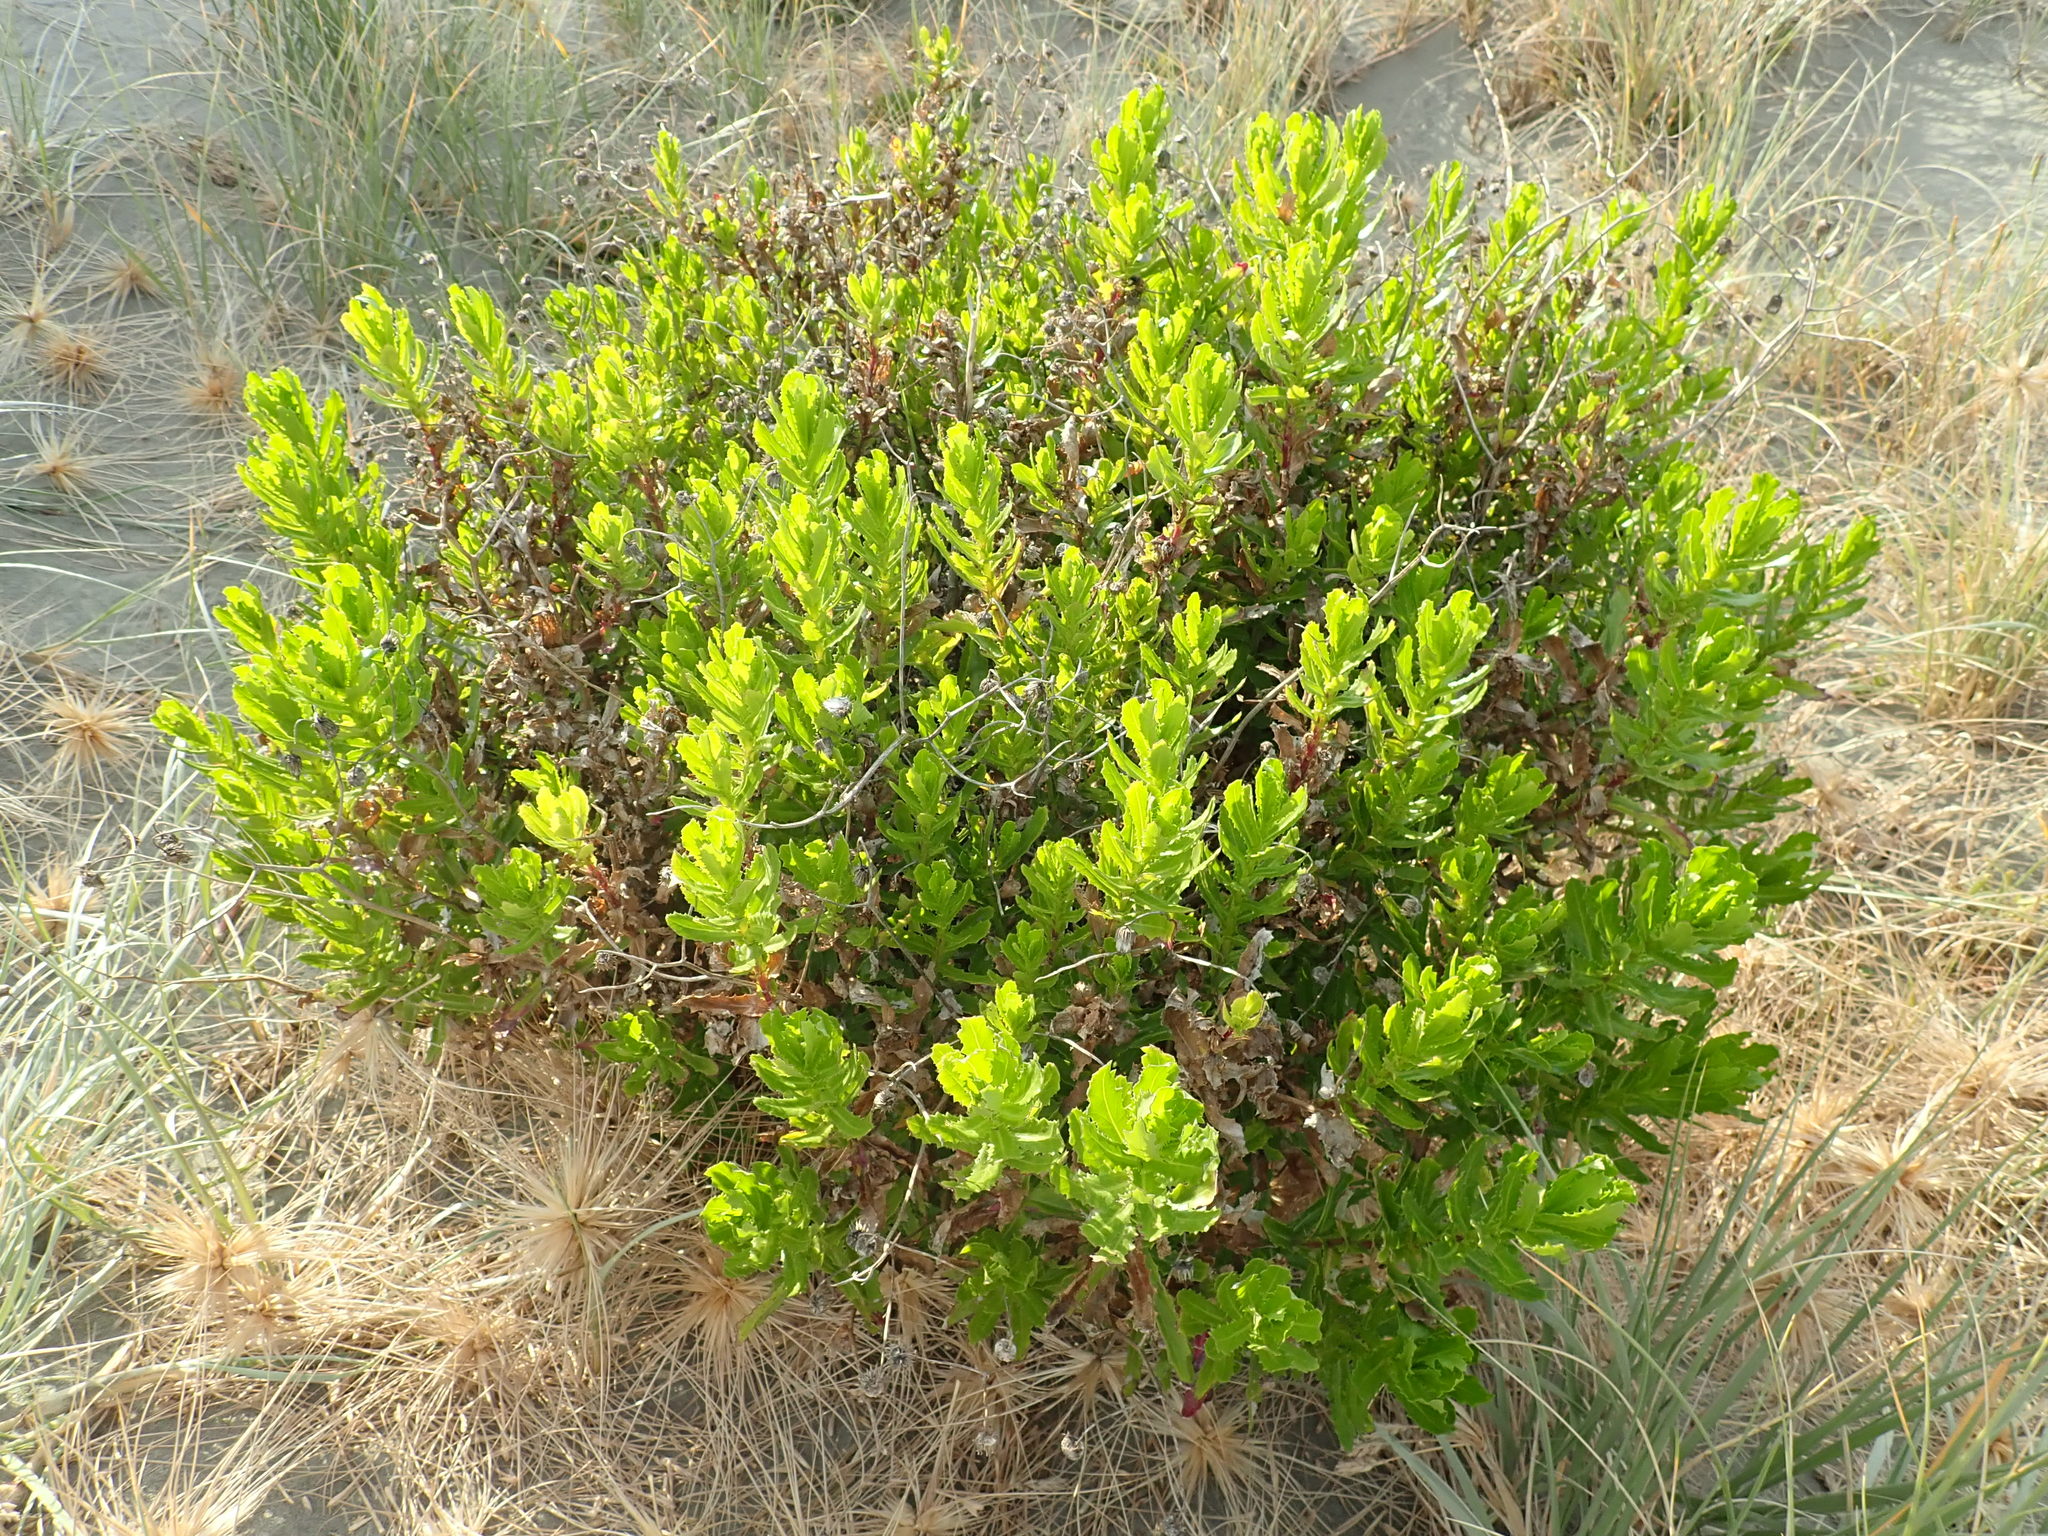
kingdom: Plantae
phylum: Tracheophyta
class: Magnoliopsida
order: Asterales
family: Asteraceae
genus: Senecio
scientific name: Senecio glastifolius
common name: Woad-leaved ragwort
